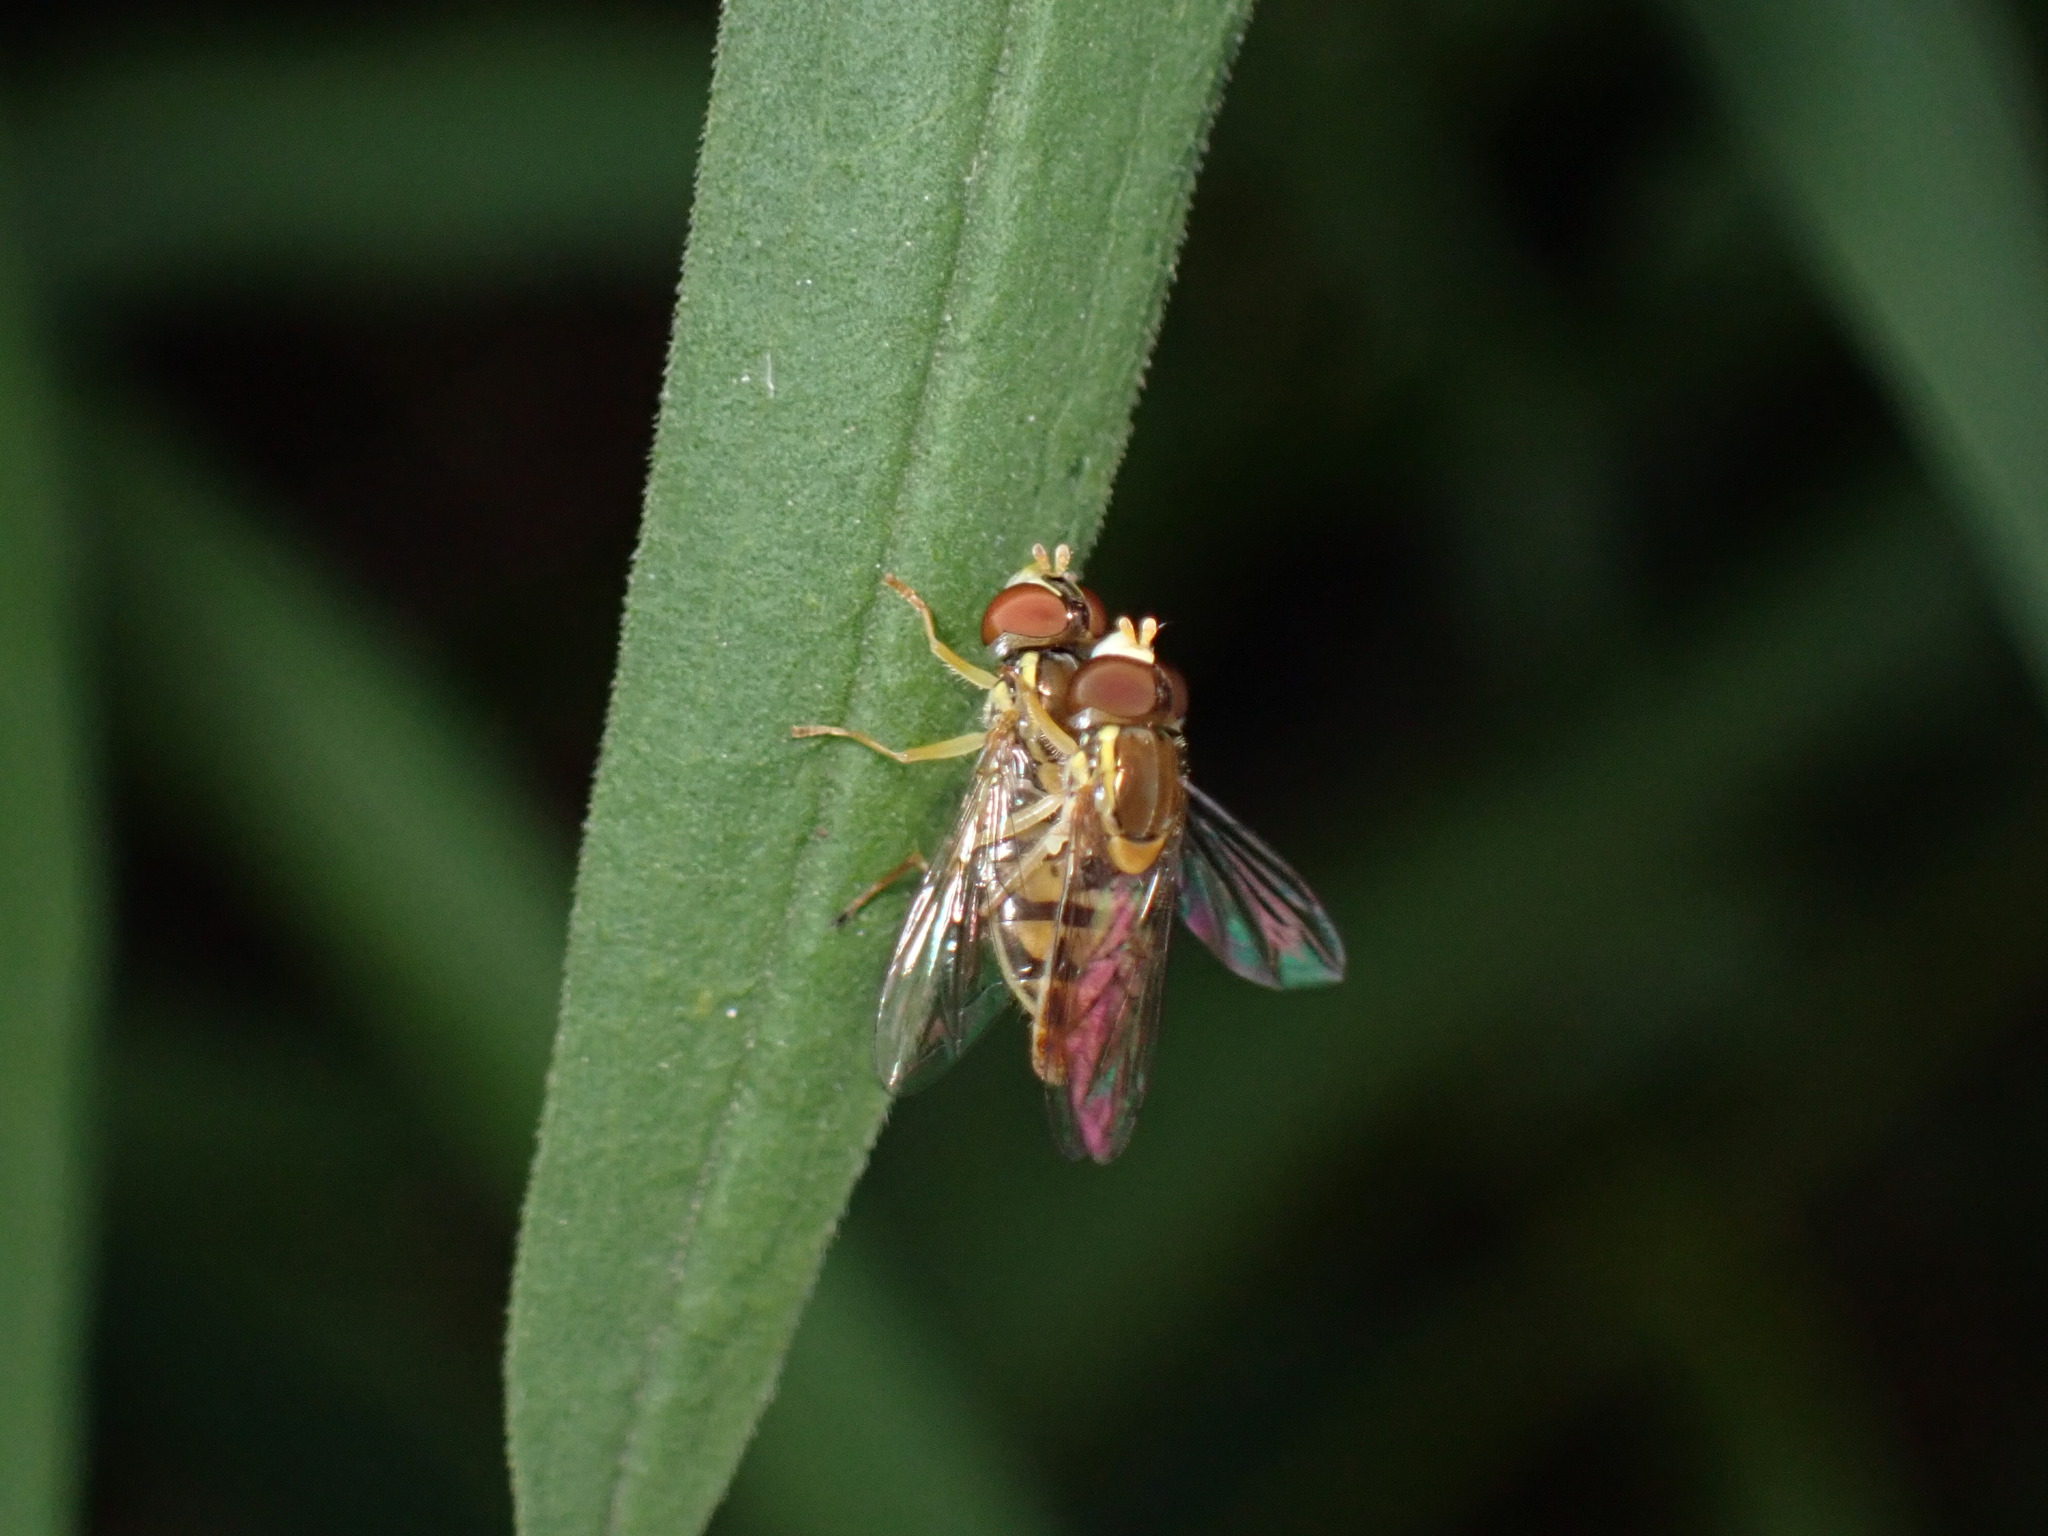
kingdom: Animalia
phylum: Arthropoda
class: Insecta
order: Diptera
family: Syrphidae
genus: Toxomerus
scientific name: Toxomerus marginatus
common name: Syrphid fly
